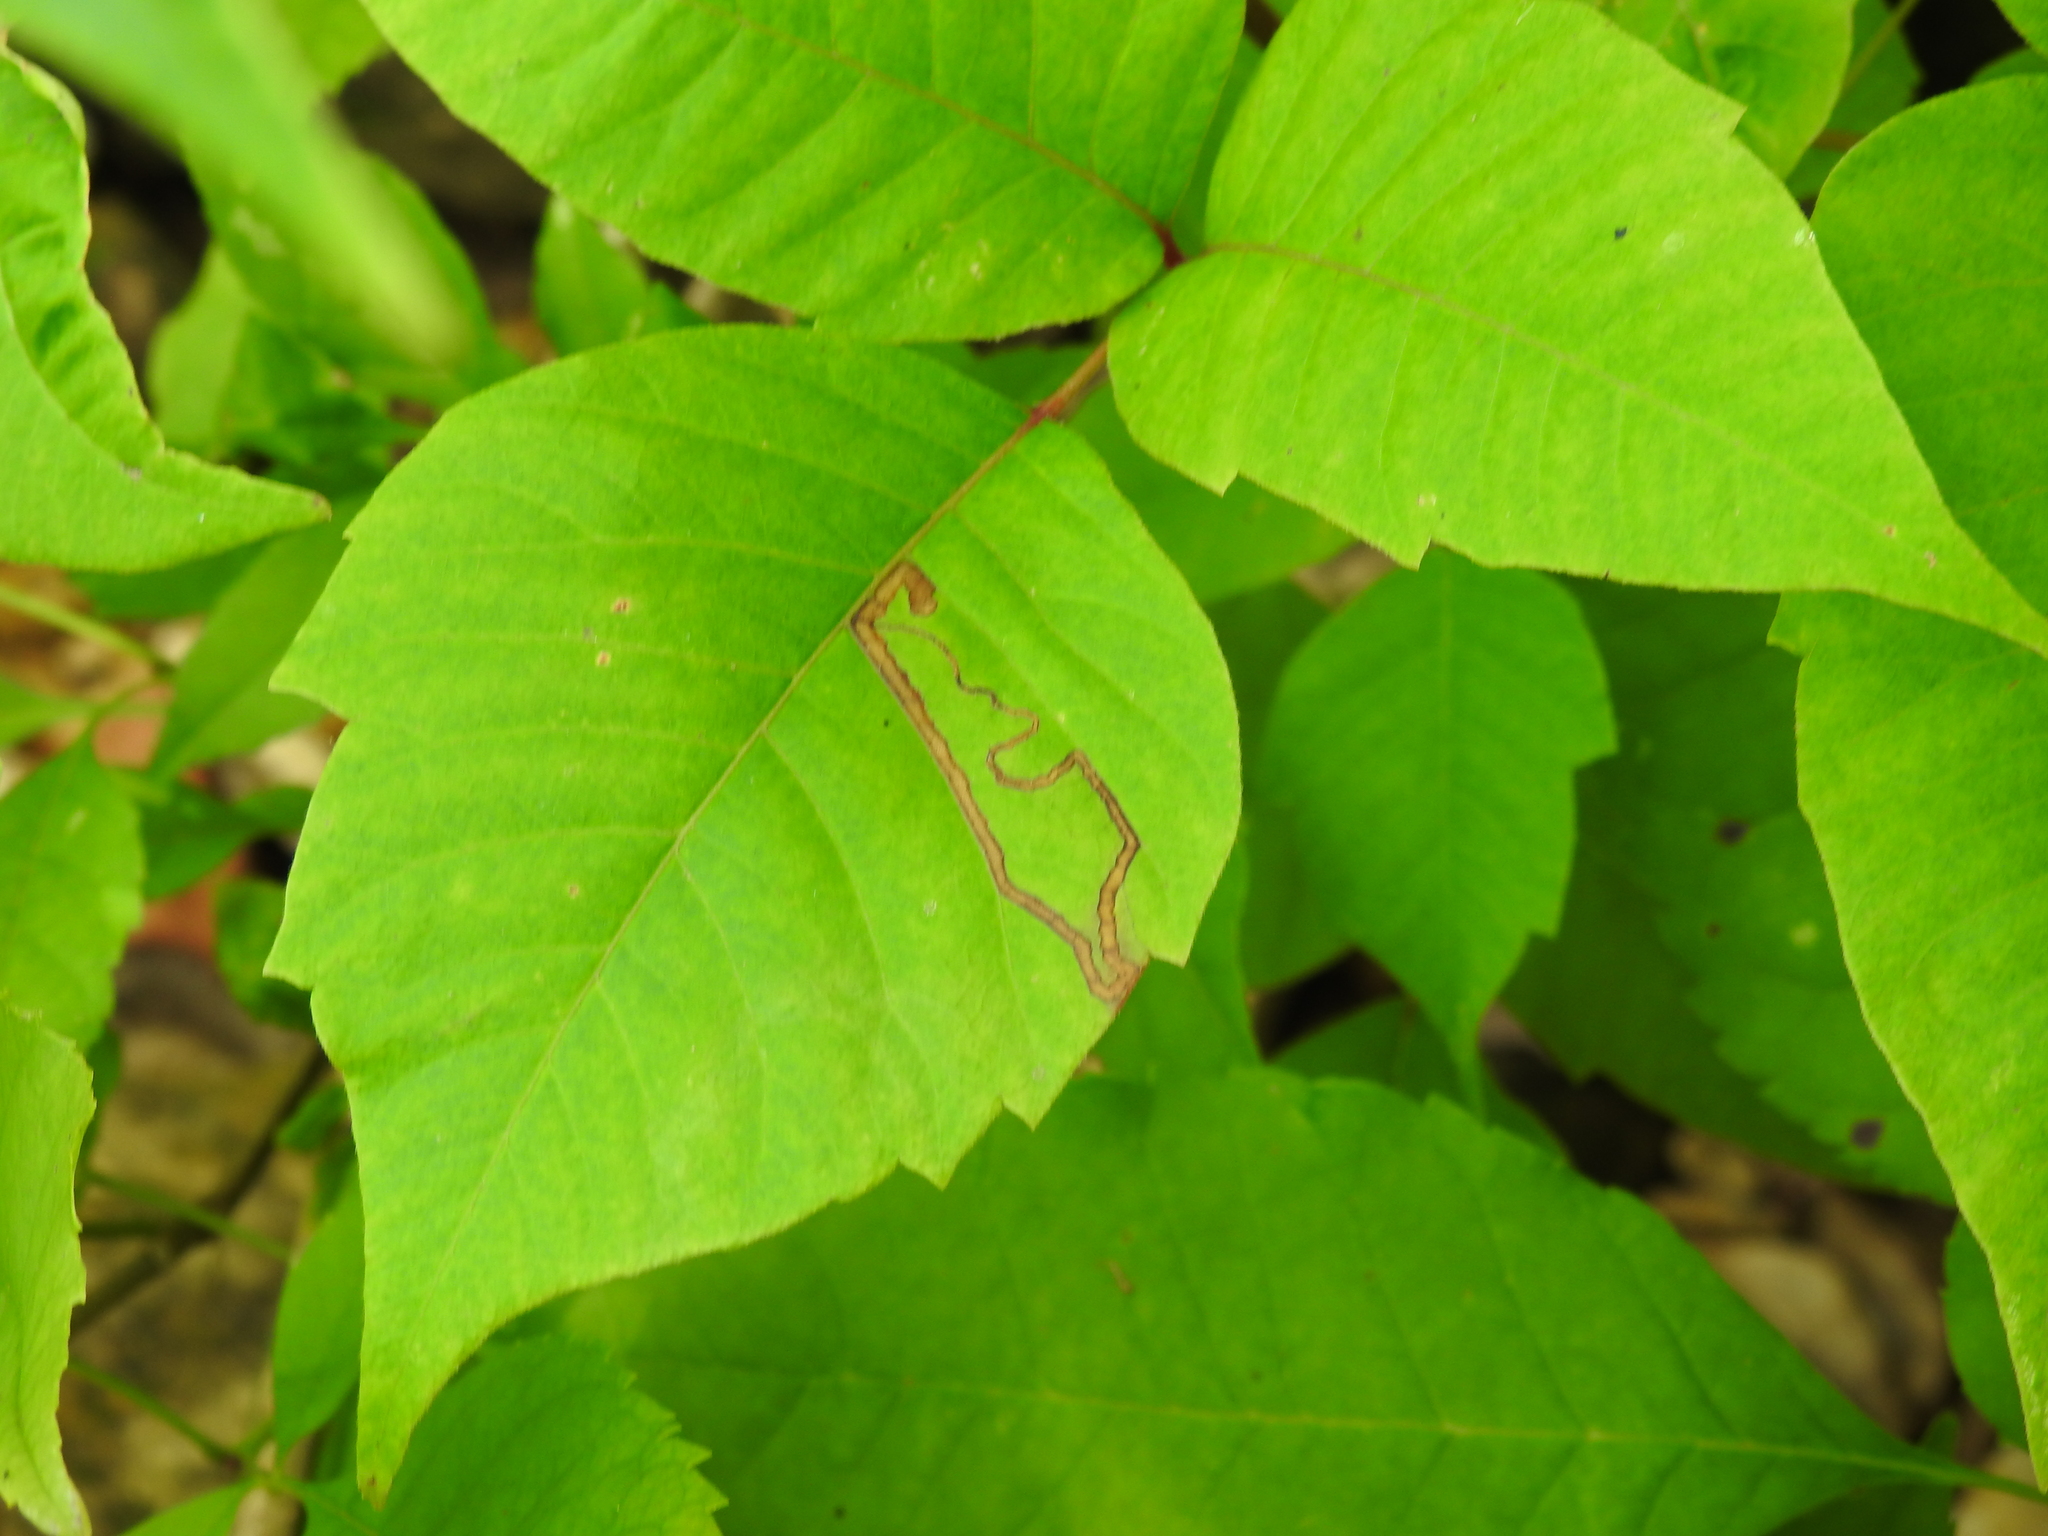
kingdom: Animalia
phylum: Arthropoda
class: Insecta
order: Lepidoptera
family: Nepticulidae
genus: Stigmella
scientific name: Stigmella rhoifoliella
